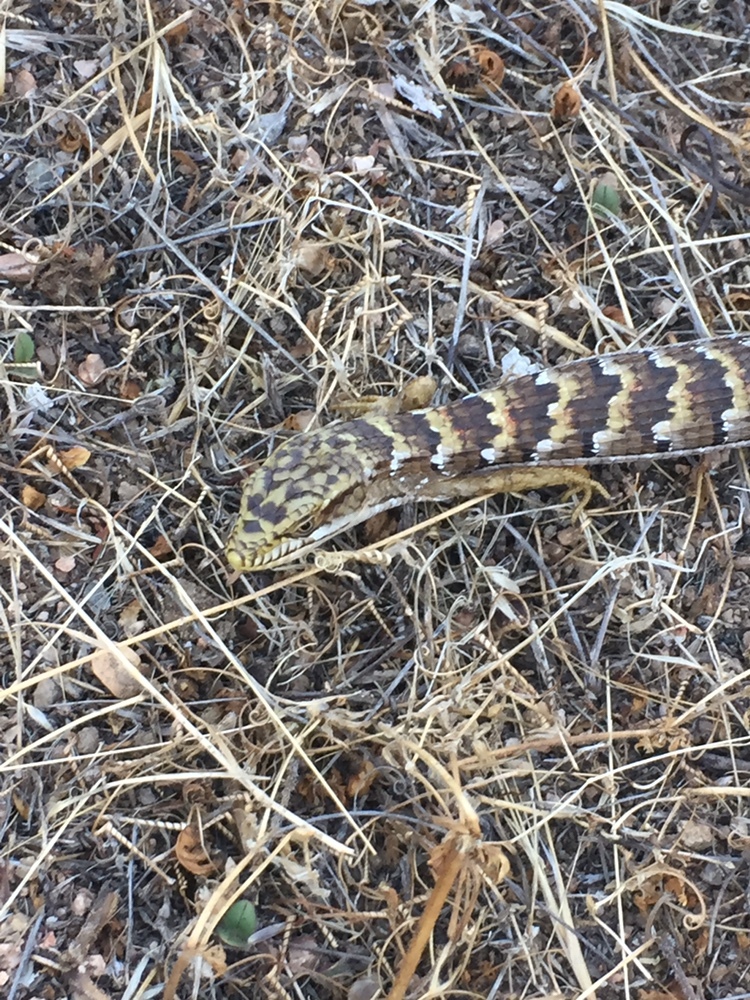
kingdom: Animalia
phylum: Chordata
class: Squamata
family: Anguidae
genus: Elgaria
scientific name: Elgaria multicarinata
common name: Southern alligator lizard
